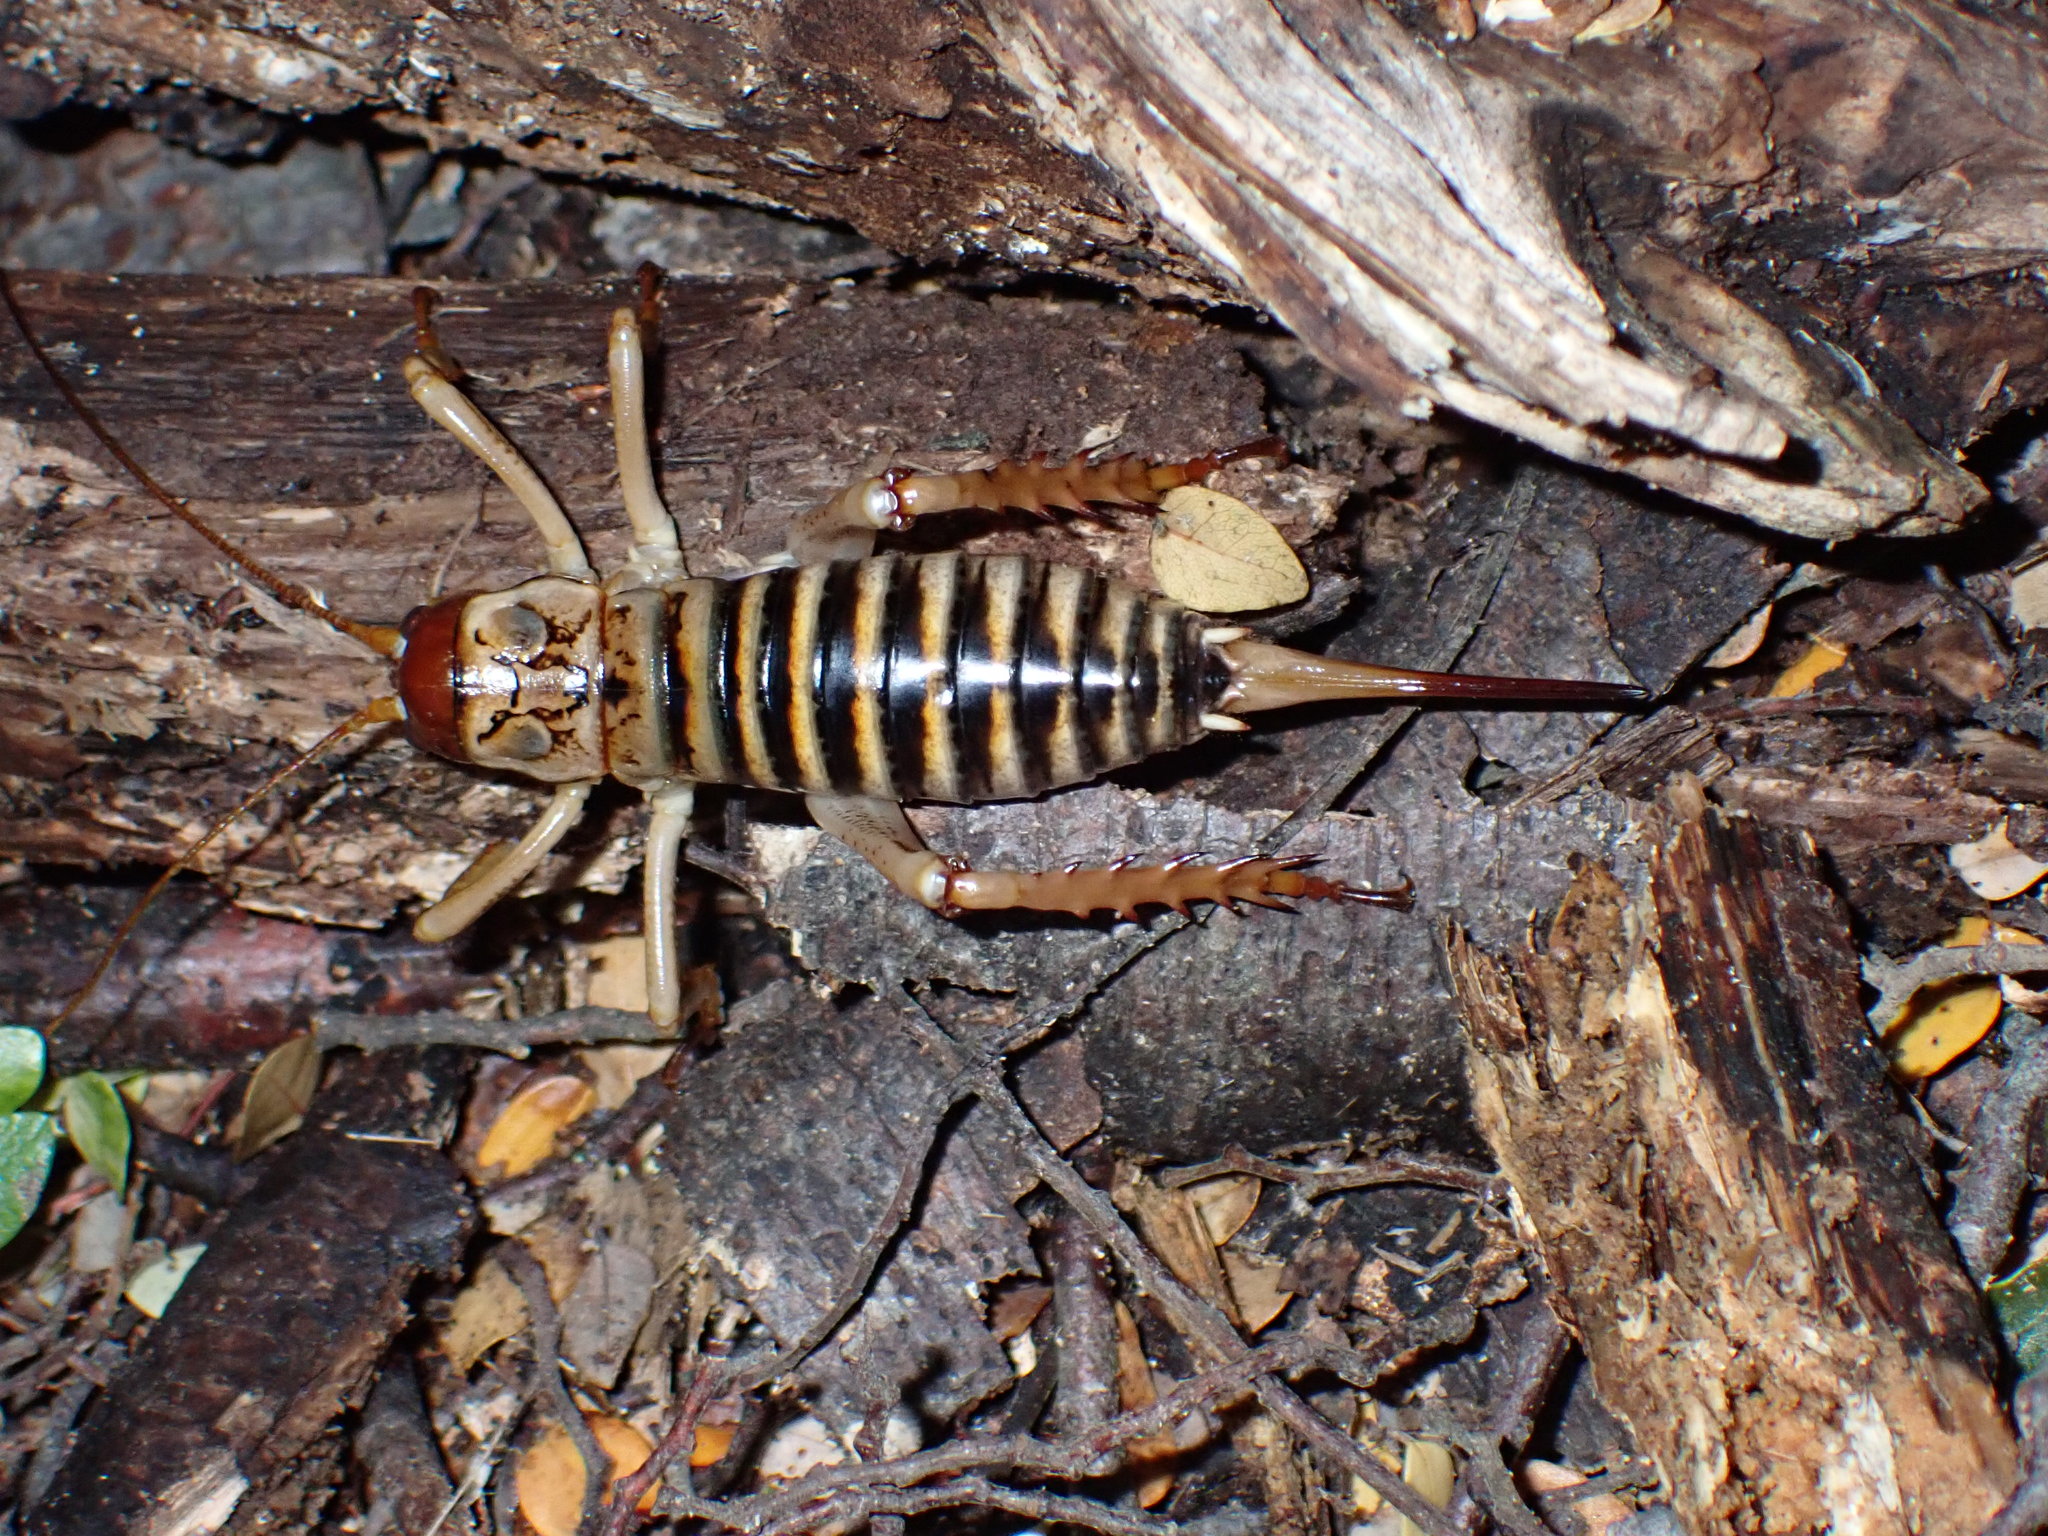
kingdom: Animalia
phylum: Arthropoda
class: Insecta
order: Orthoptera
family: Anostostomatidae
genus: Hemideina
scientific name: Hemideina femorata
